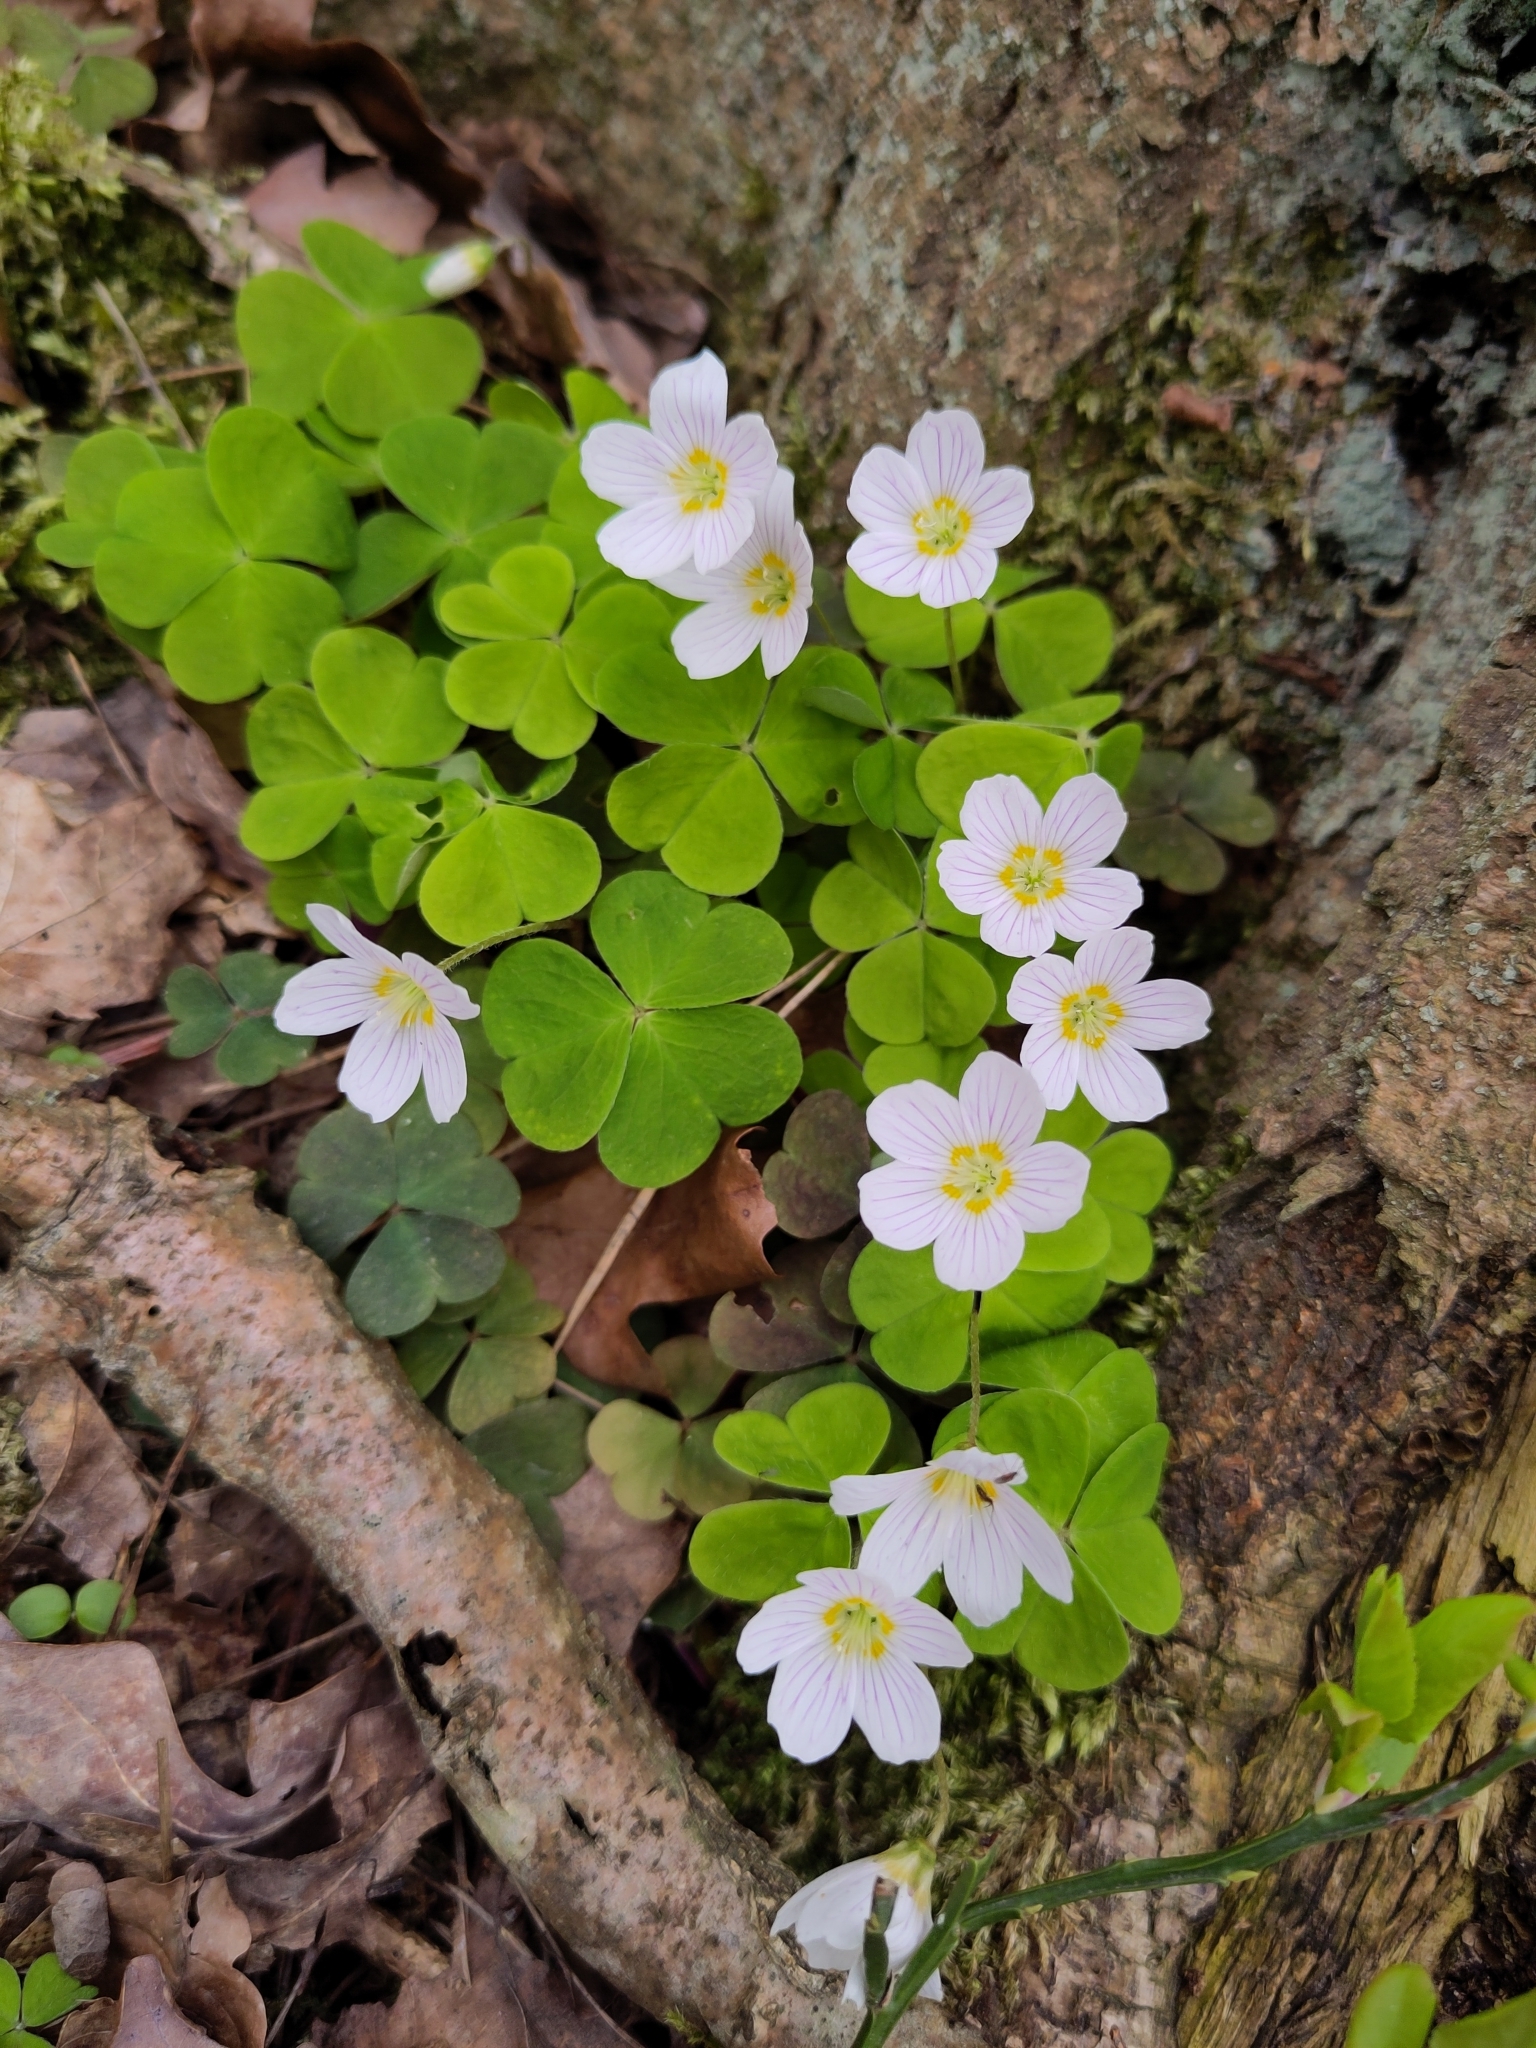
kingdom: Plantae
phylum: Tracheophyta
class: Magnoliopsida
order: Oxalidales
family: Oxalidaceae
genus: Oxalis
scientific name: Oxalis acetosella
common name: Wood-sorrel
